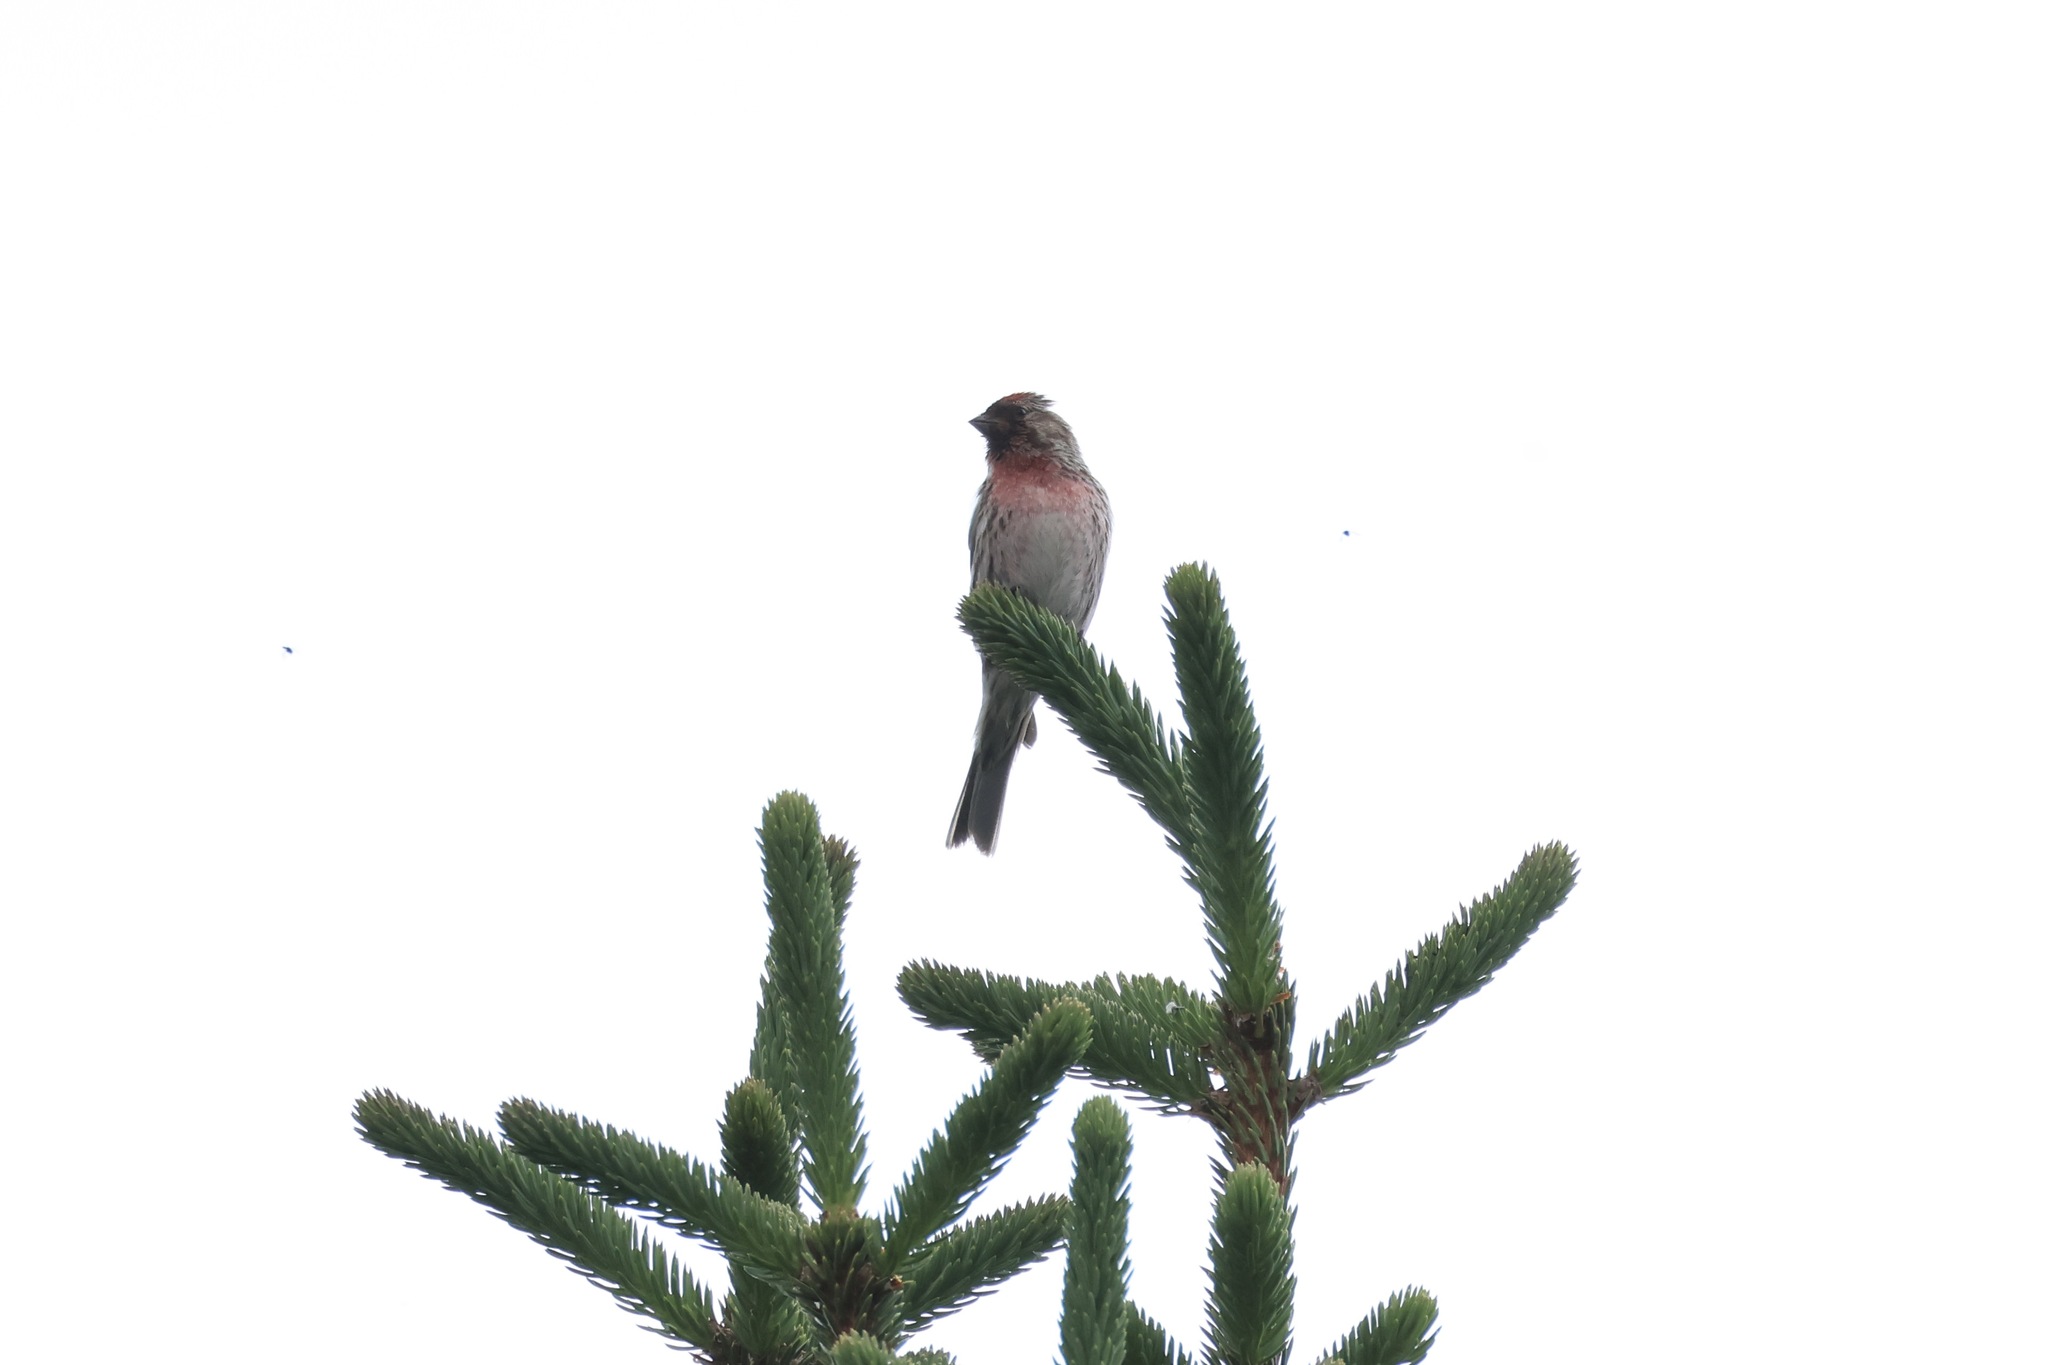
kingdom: Animalia
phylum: Chordata
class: Aves
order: Passeriformes
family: Fringillidae
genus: Acanthis
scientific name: Acanthis flammea
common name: Common redpoll
